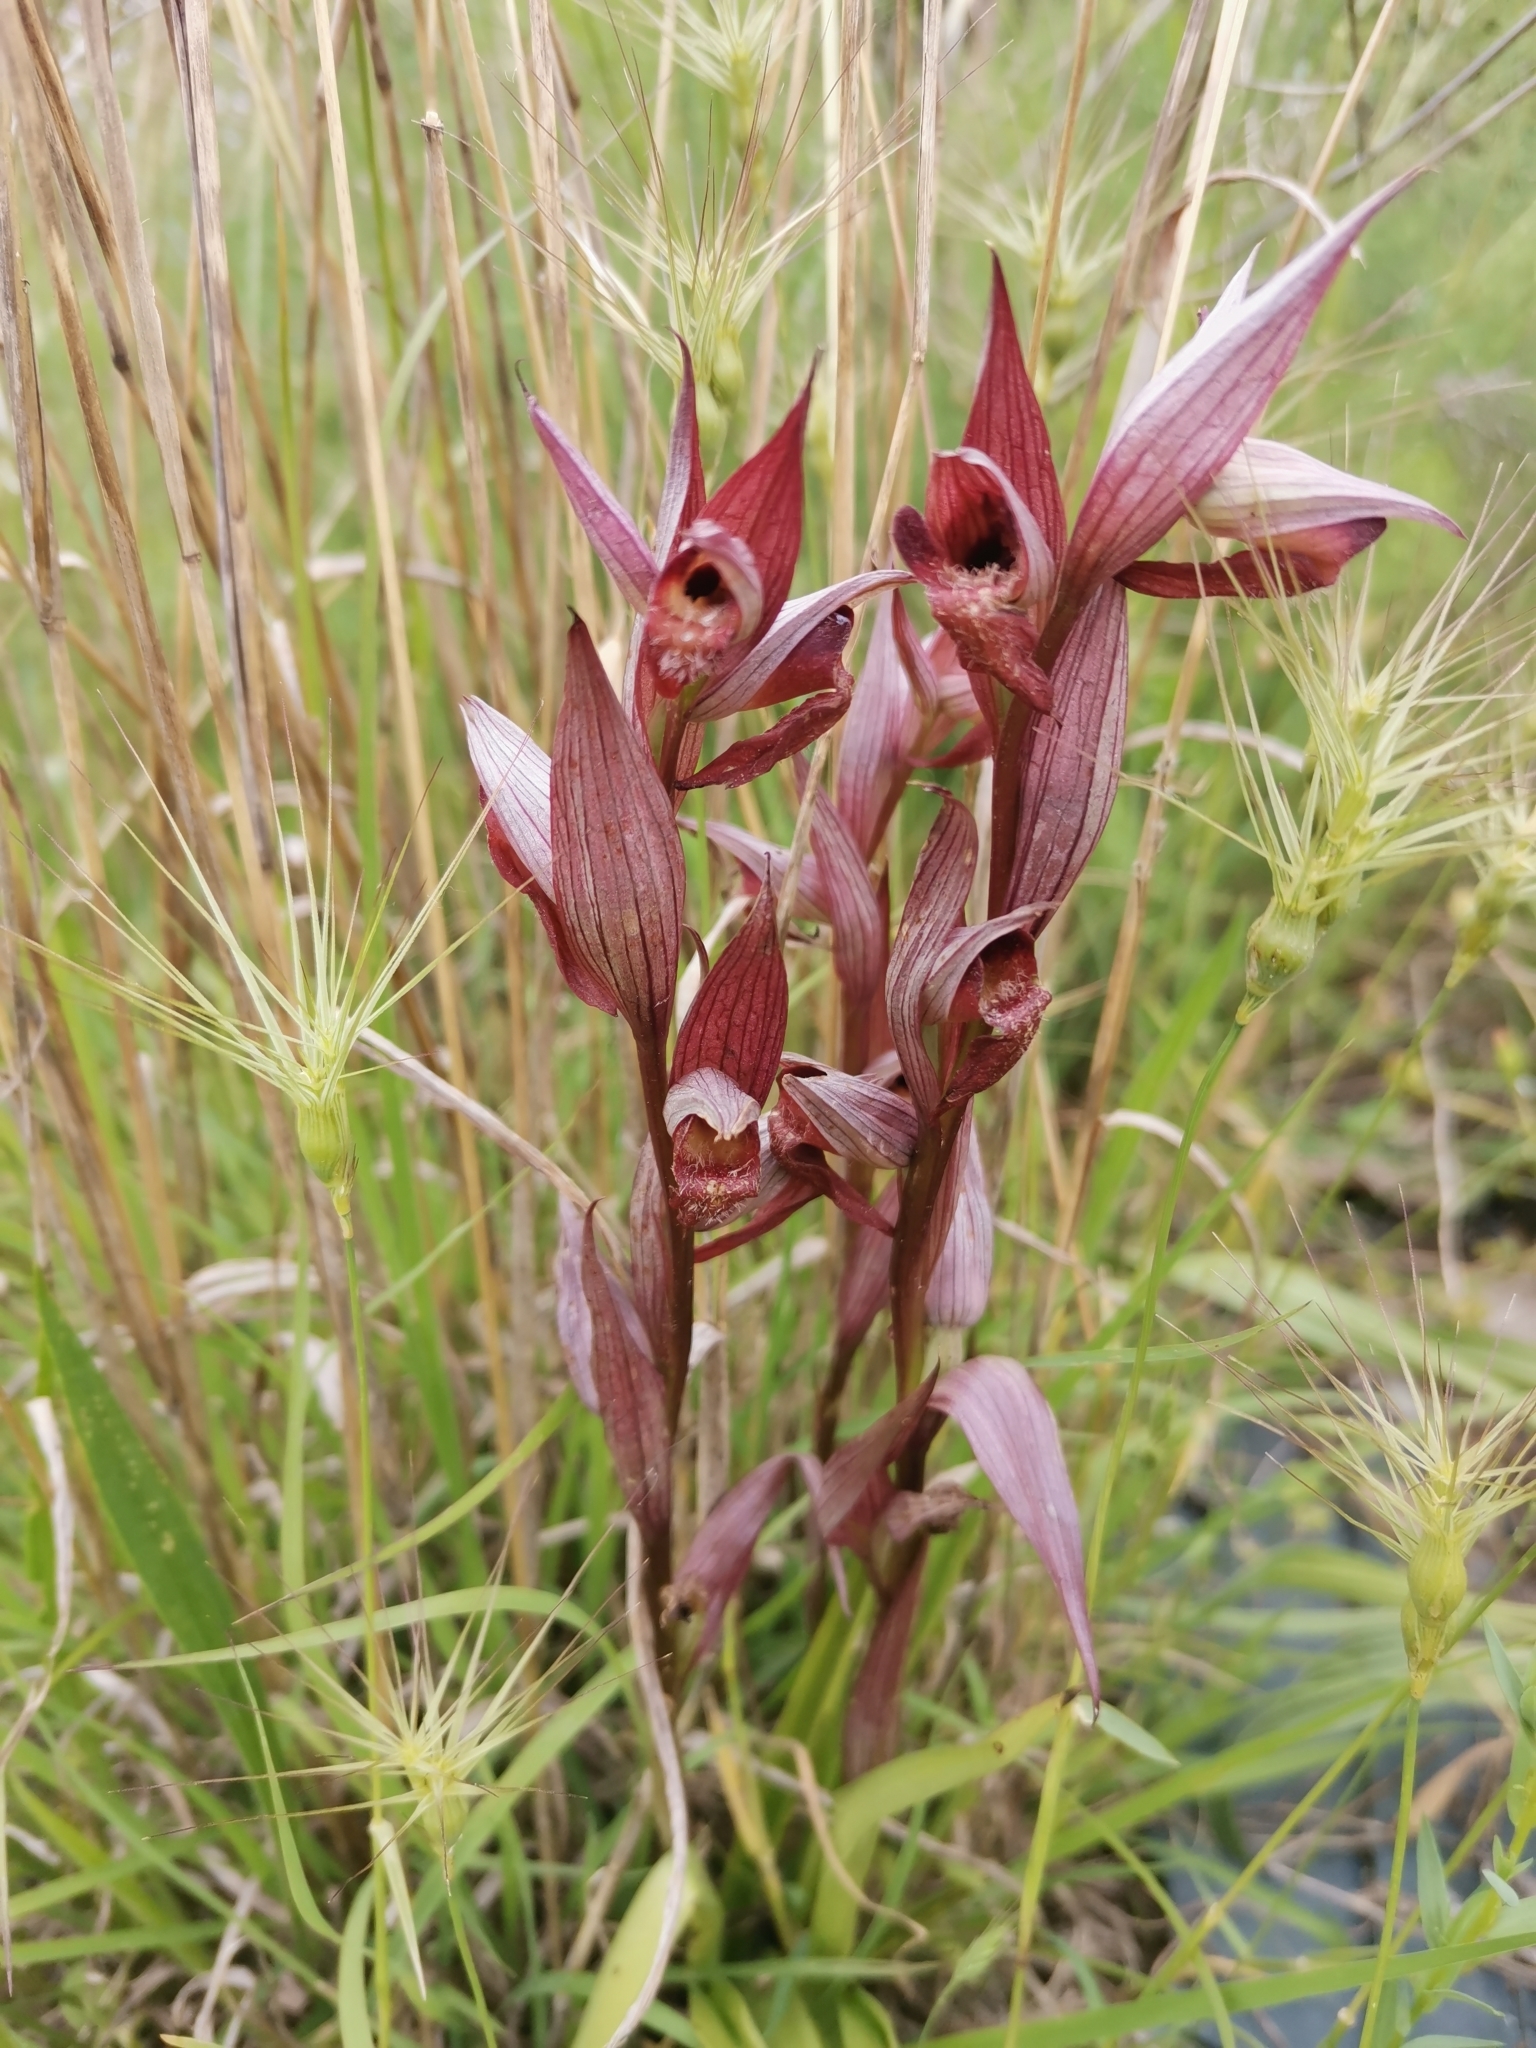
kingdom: Plantae
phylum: Tracheophyta
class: Liliopsida
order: Asparagales
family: Orchidaceae
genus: Serapias
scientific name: Serapias vomeracea
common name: Long-lipped tongue-orchid
